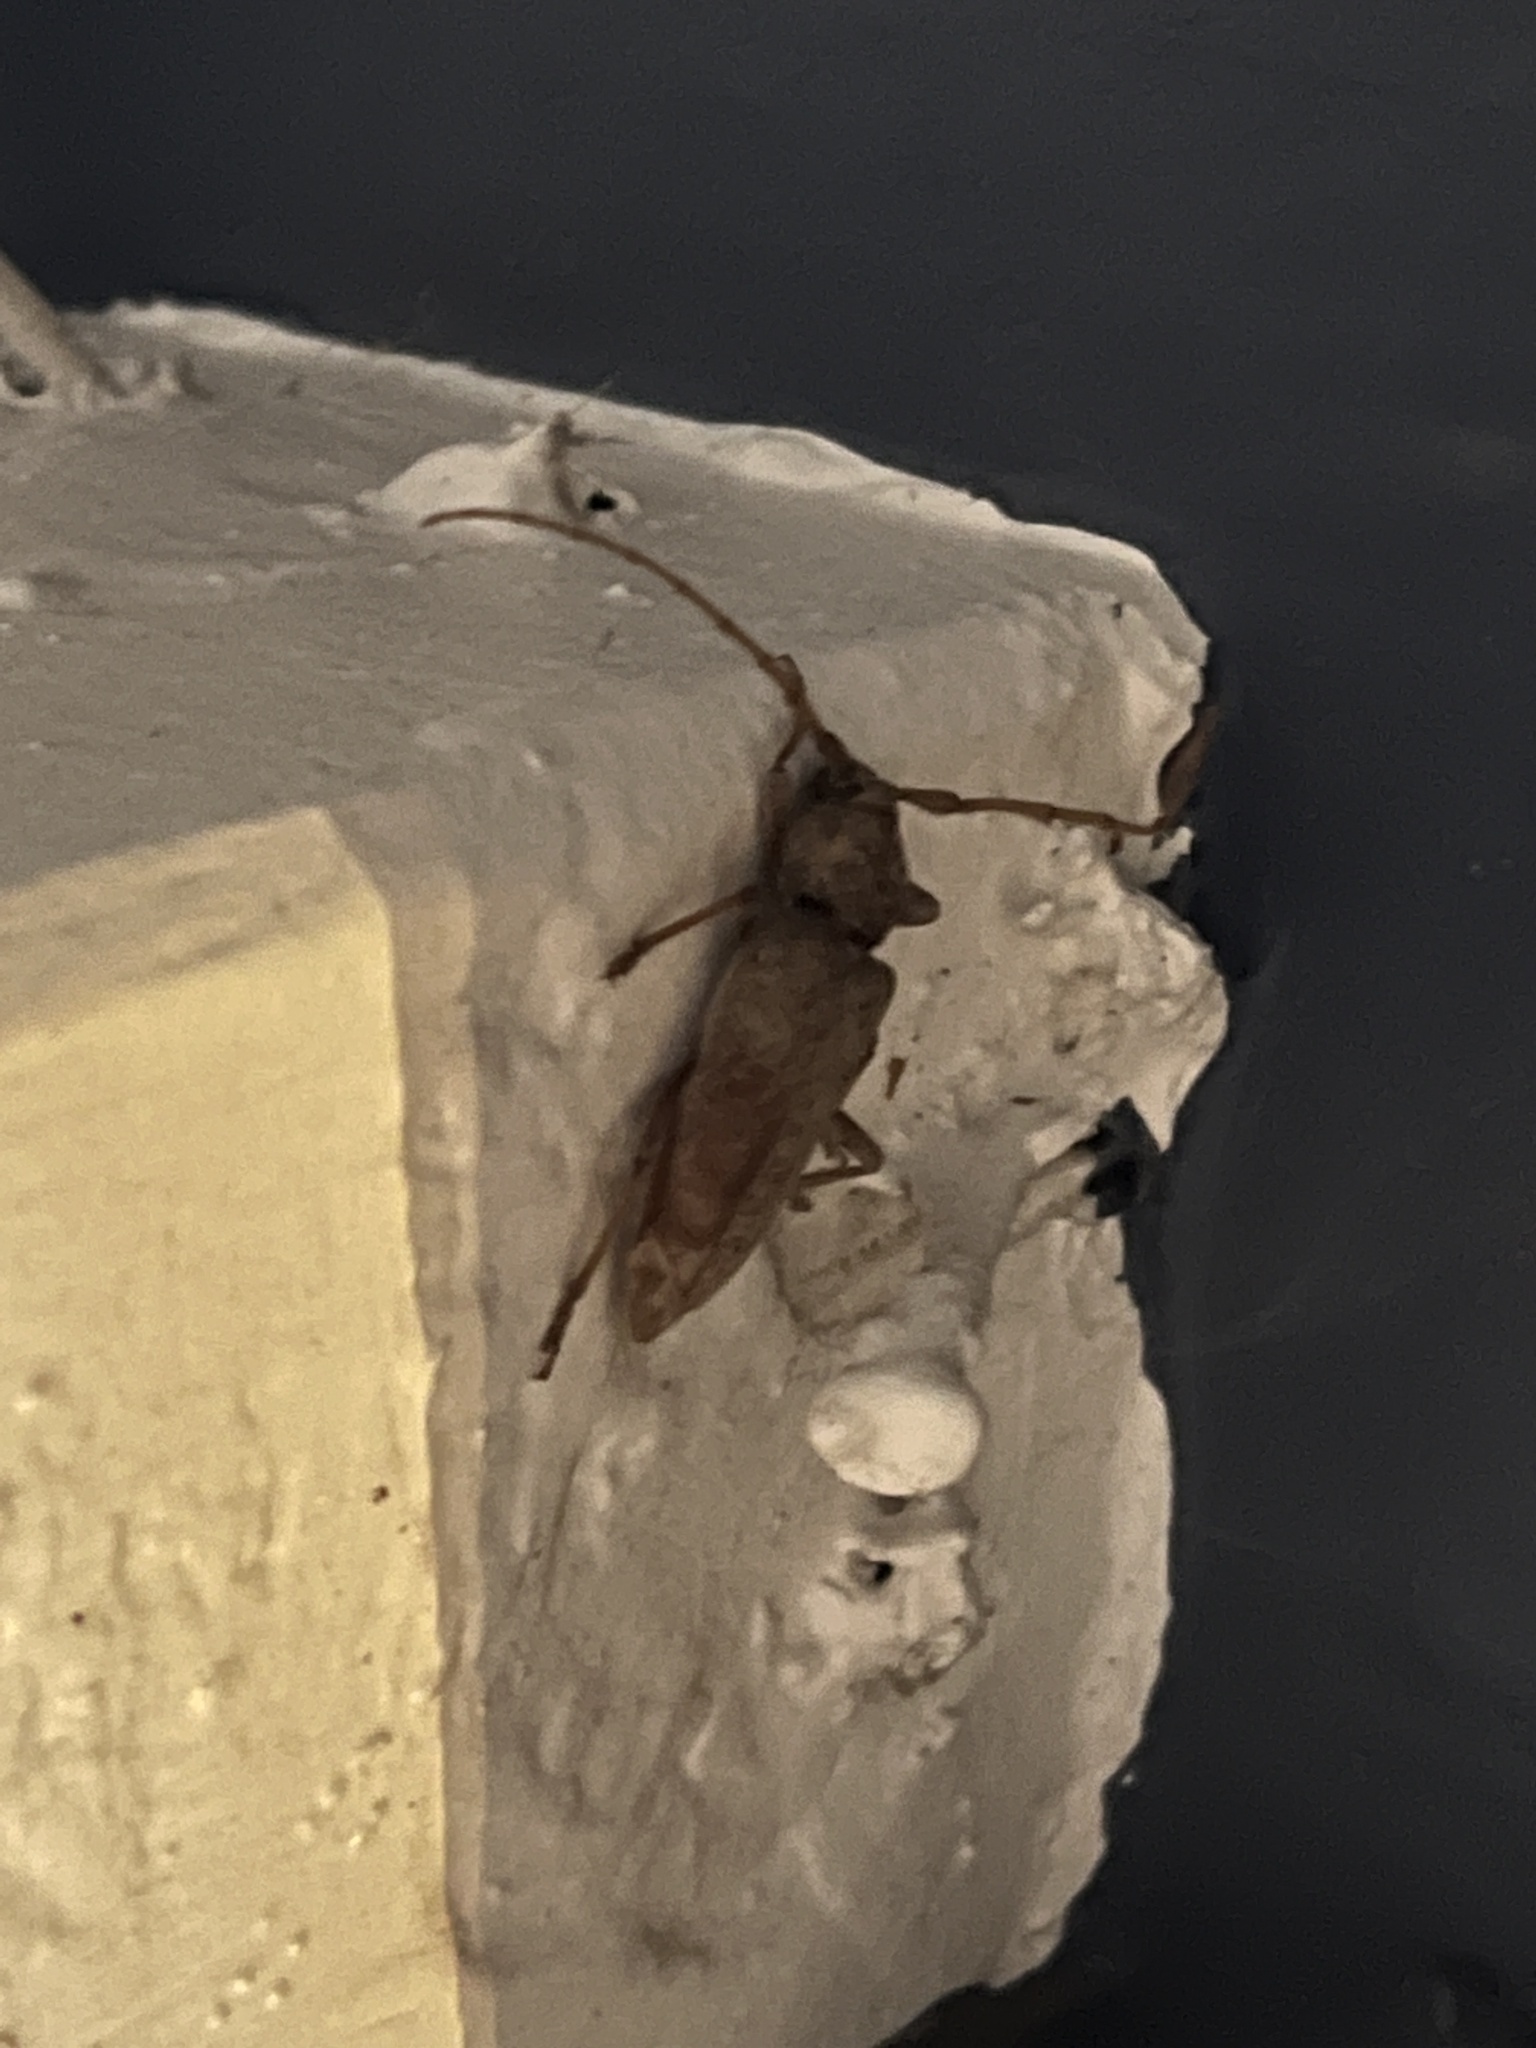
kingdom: Animalia
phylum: Arthropoda
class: Insecta
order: Coleoptera
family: Cerambycidae
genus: Enaphalodes
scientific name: Enaphalodes rufulus
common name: Red oak borer
